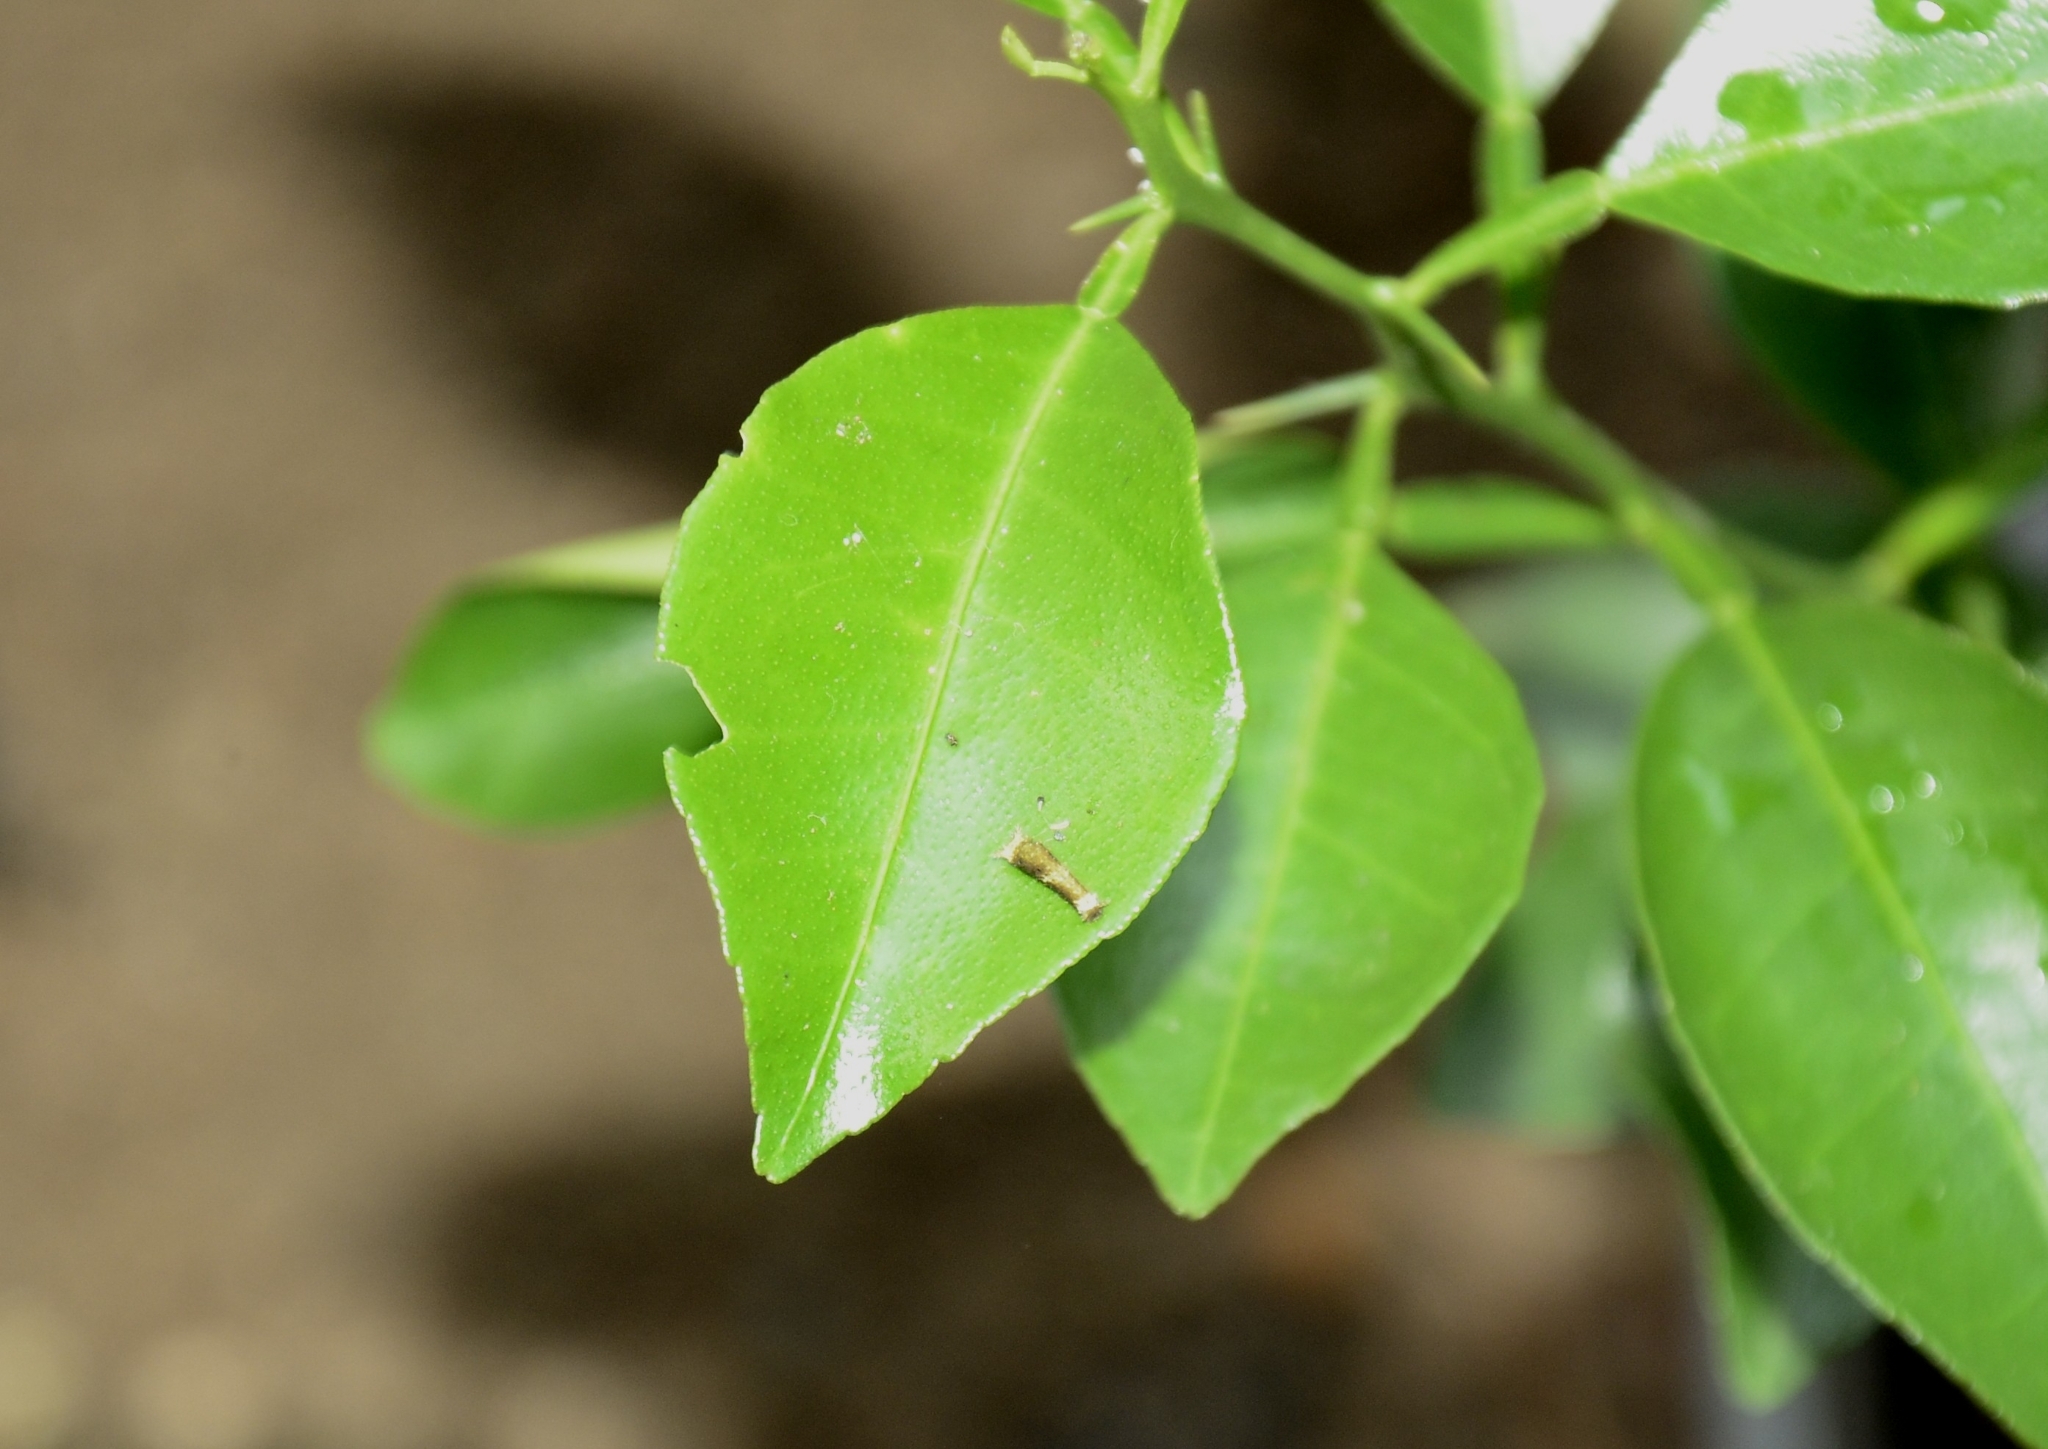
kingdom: Animalia
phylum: Arthropoda
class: Insecta
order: Lepidoptera
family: Papilionidae
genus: Papilio
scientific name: Papilio polytes
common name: Common mormon
